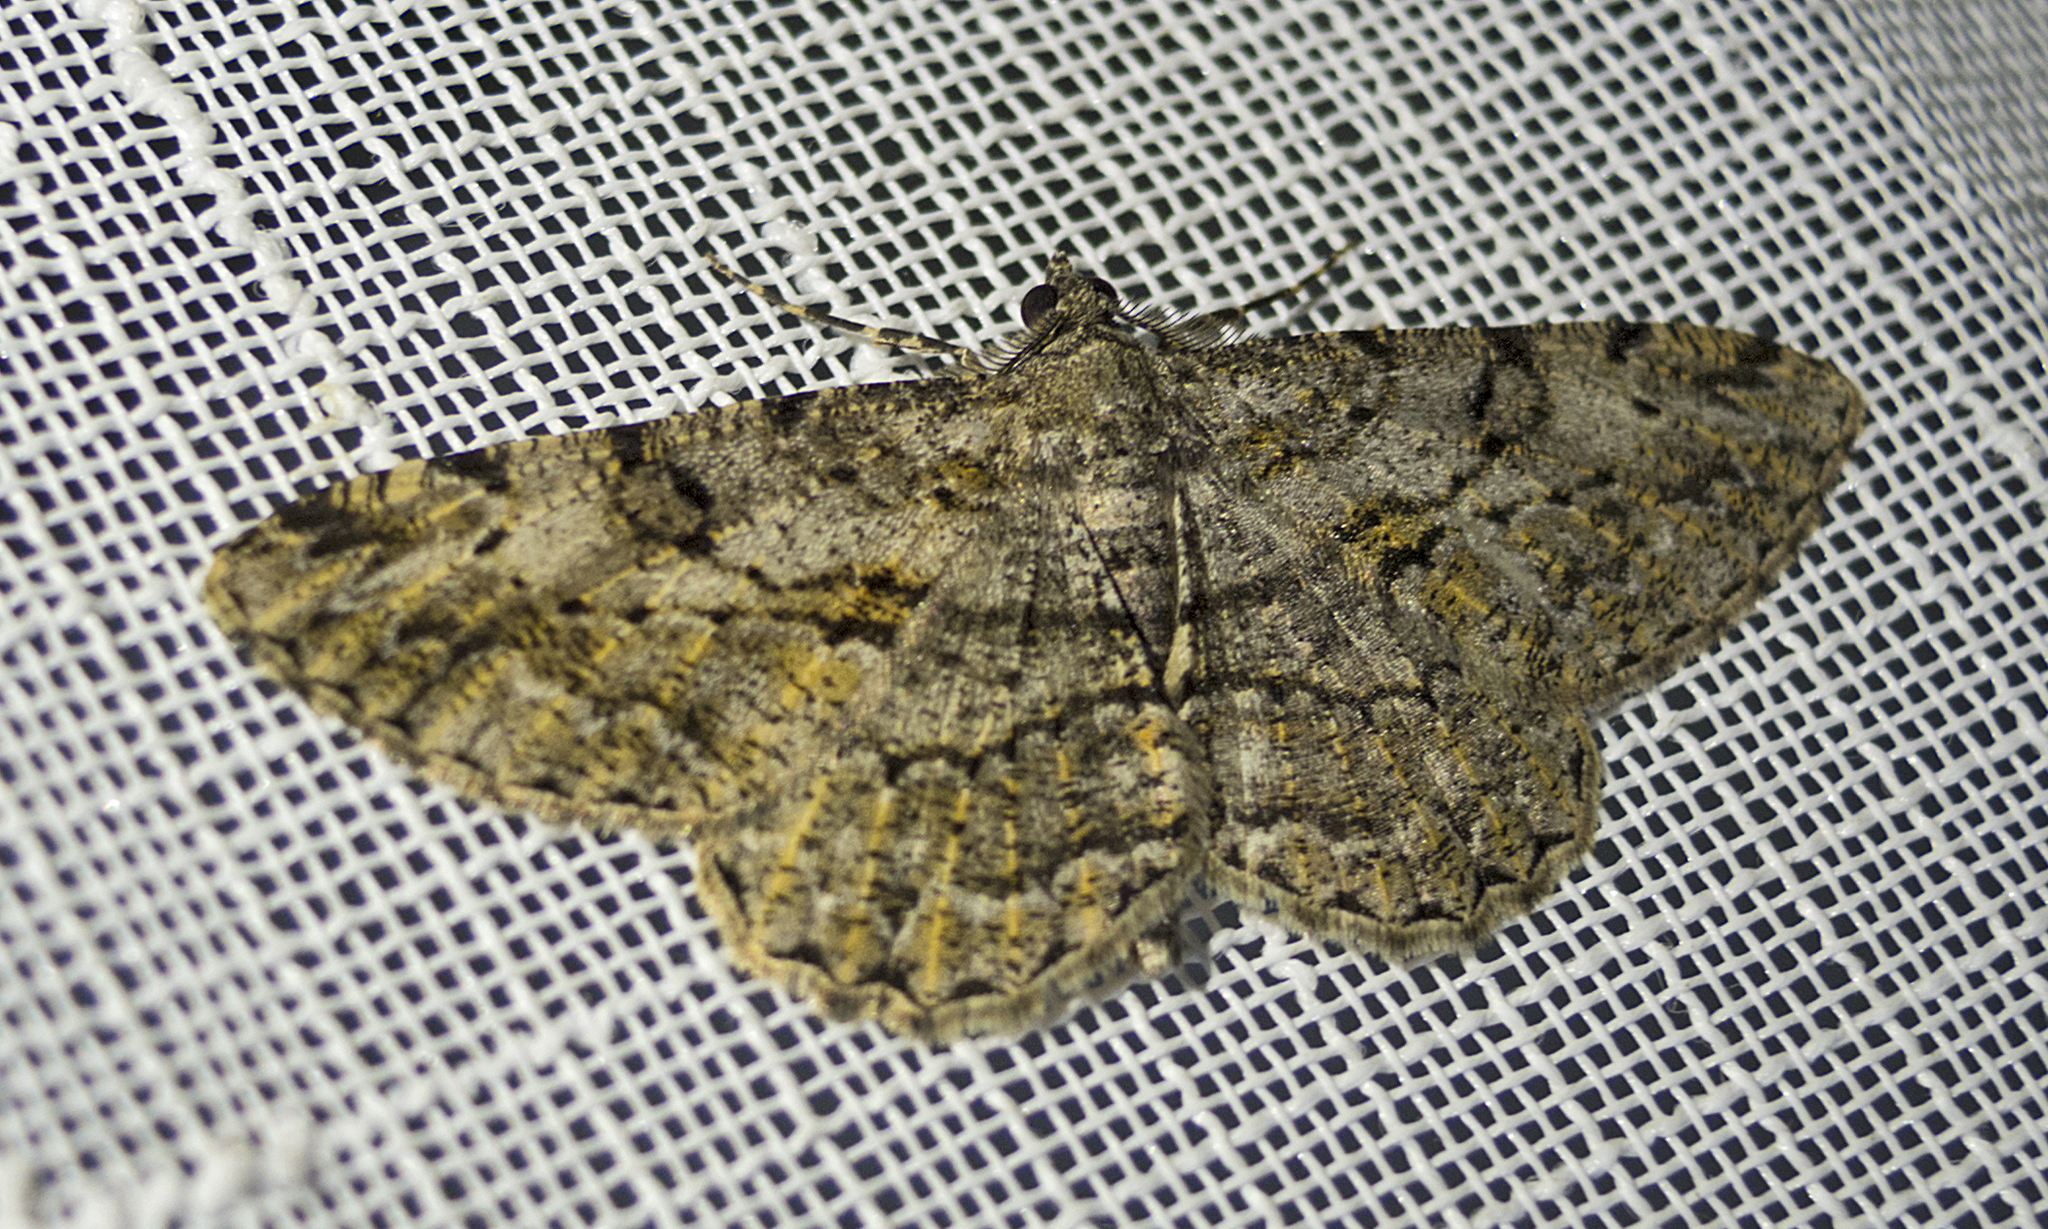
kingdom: Animalia
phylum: Arthropoda
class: Insecta
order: Lepidoptera
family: Geometridae
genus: Peribatodes
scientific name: Peribatodes rhomboidaria
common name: Willow beauty
